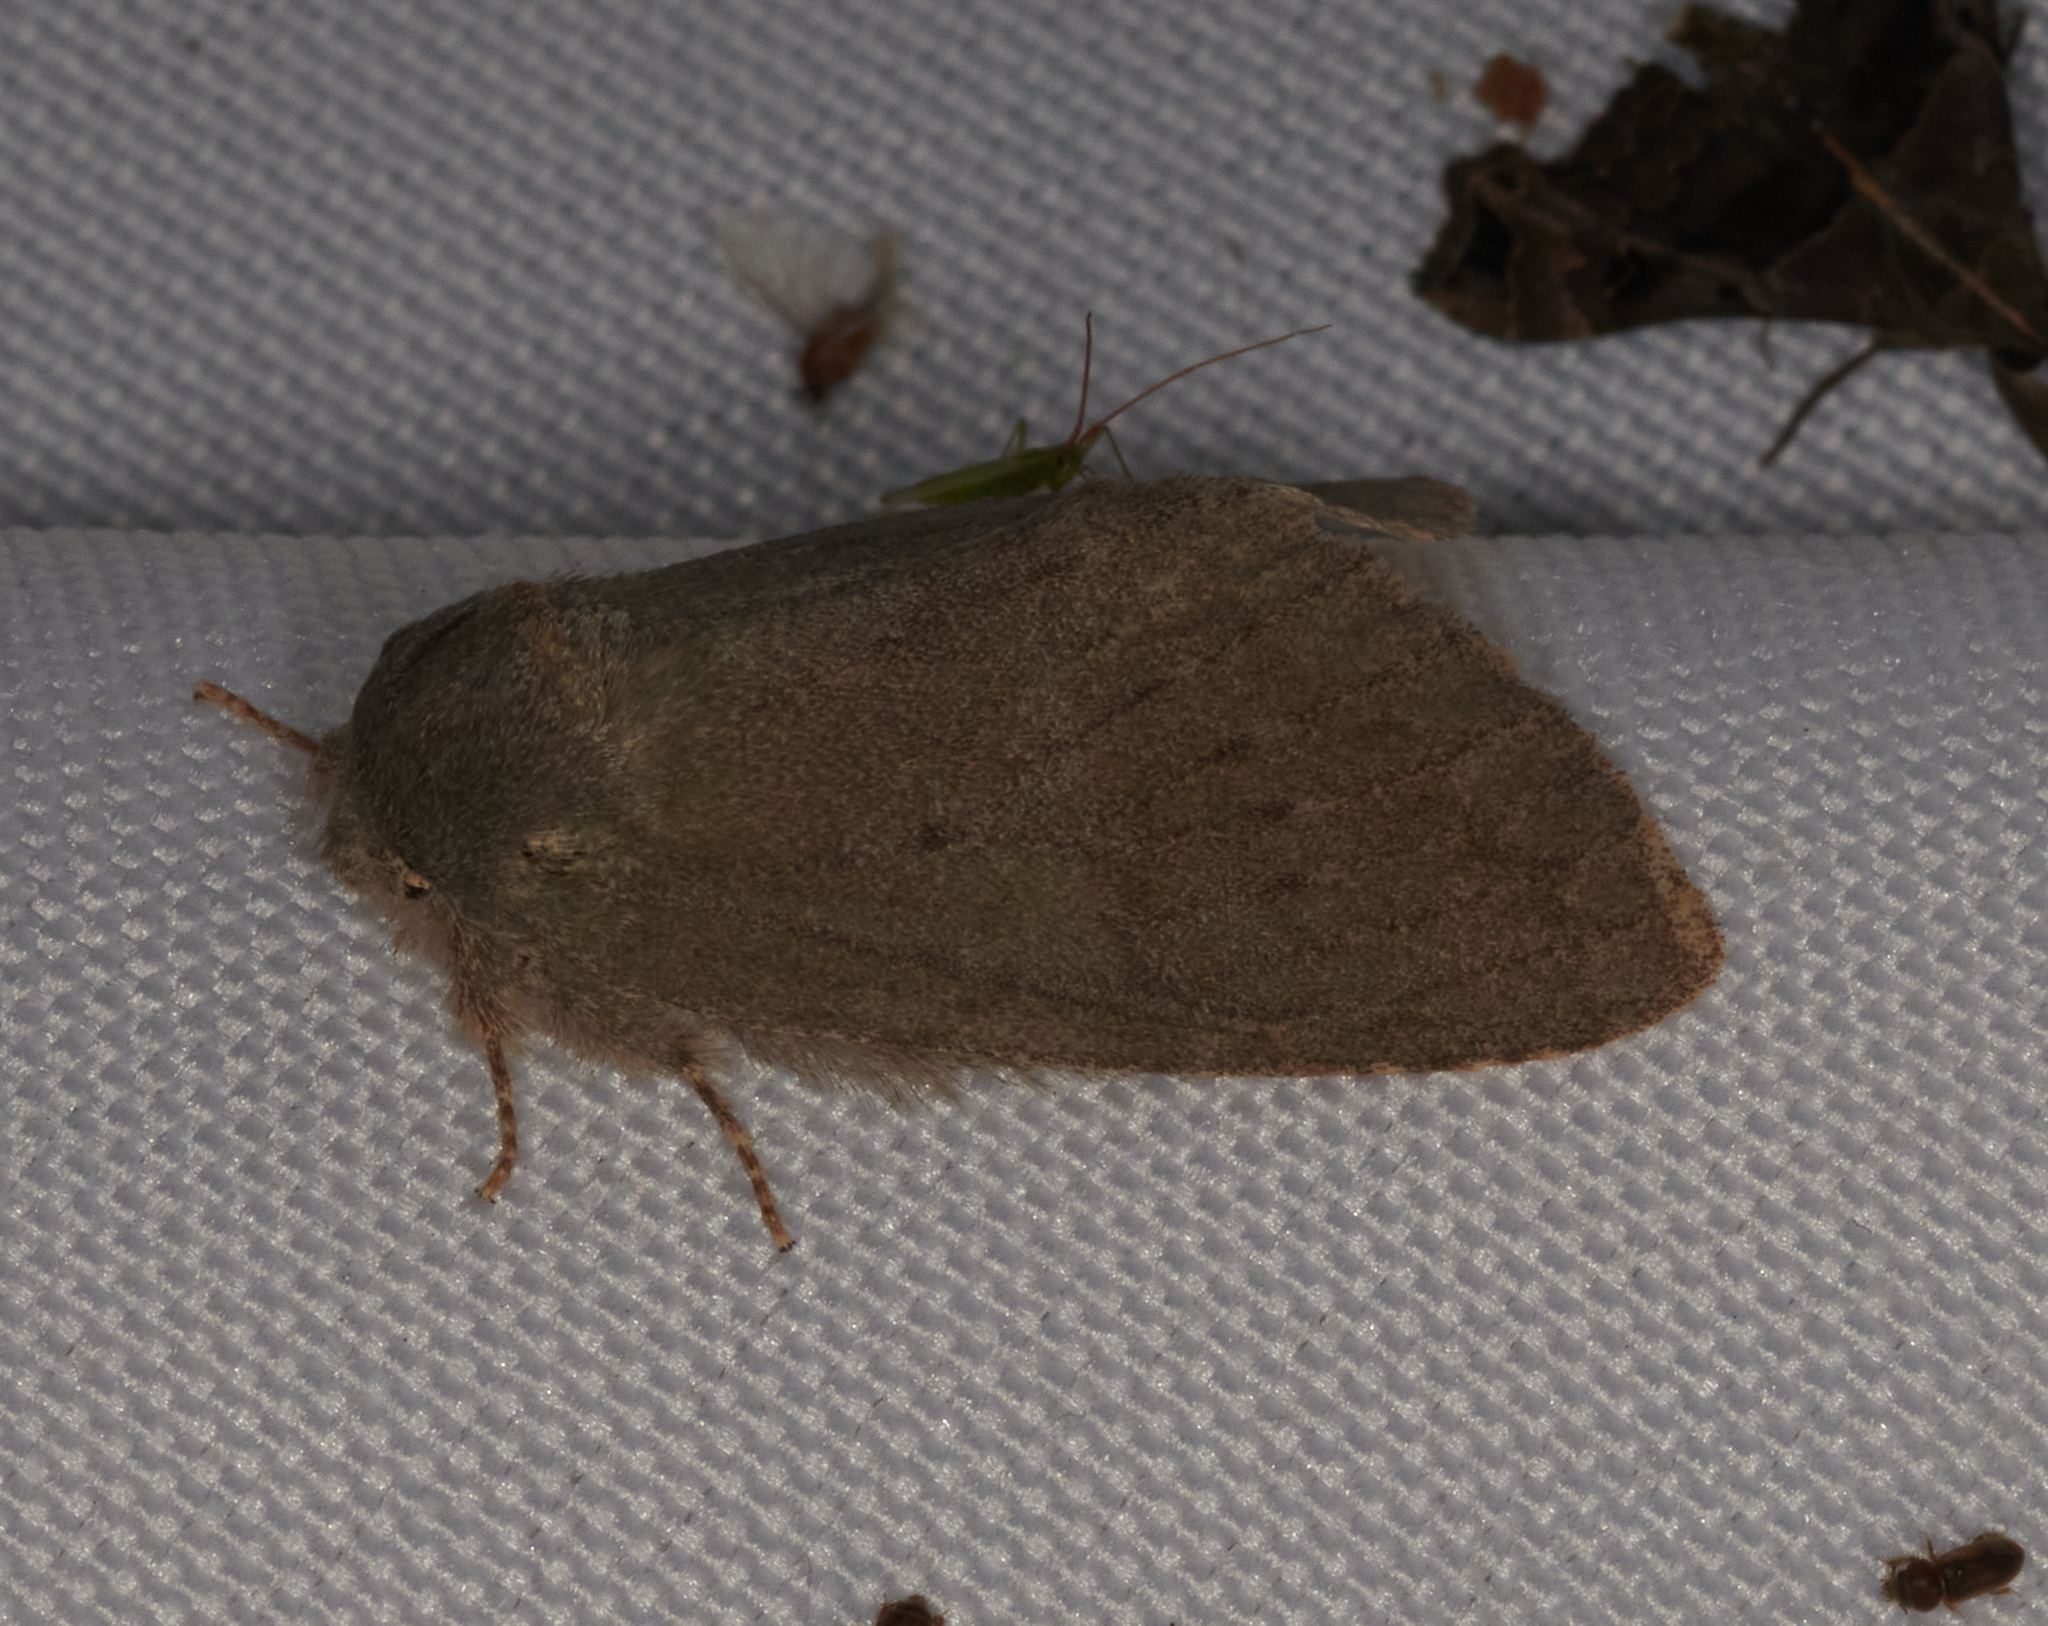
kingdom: Animalia
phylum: Arthropoda
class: Insecta
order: Lepidoptera
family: Notodontidae
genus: Misogada
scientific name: Misogada unicolor
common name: Drab prominent
